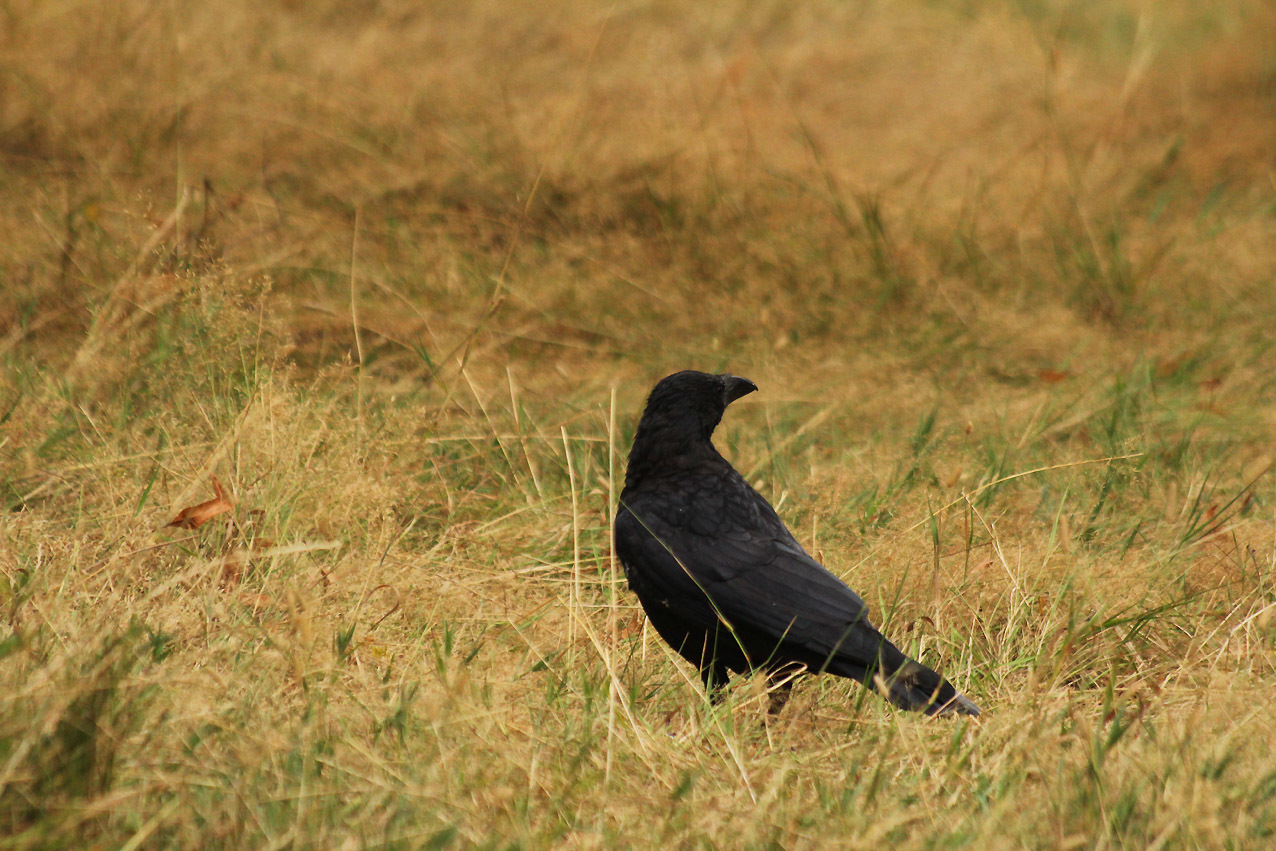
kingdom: Animalia
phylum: Chordata
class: Aves
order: Passeriformes
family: Corvidae
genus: Corvus
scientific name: Corvus corone
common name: Carrion crow
